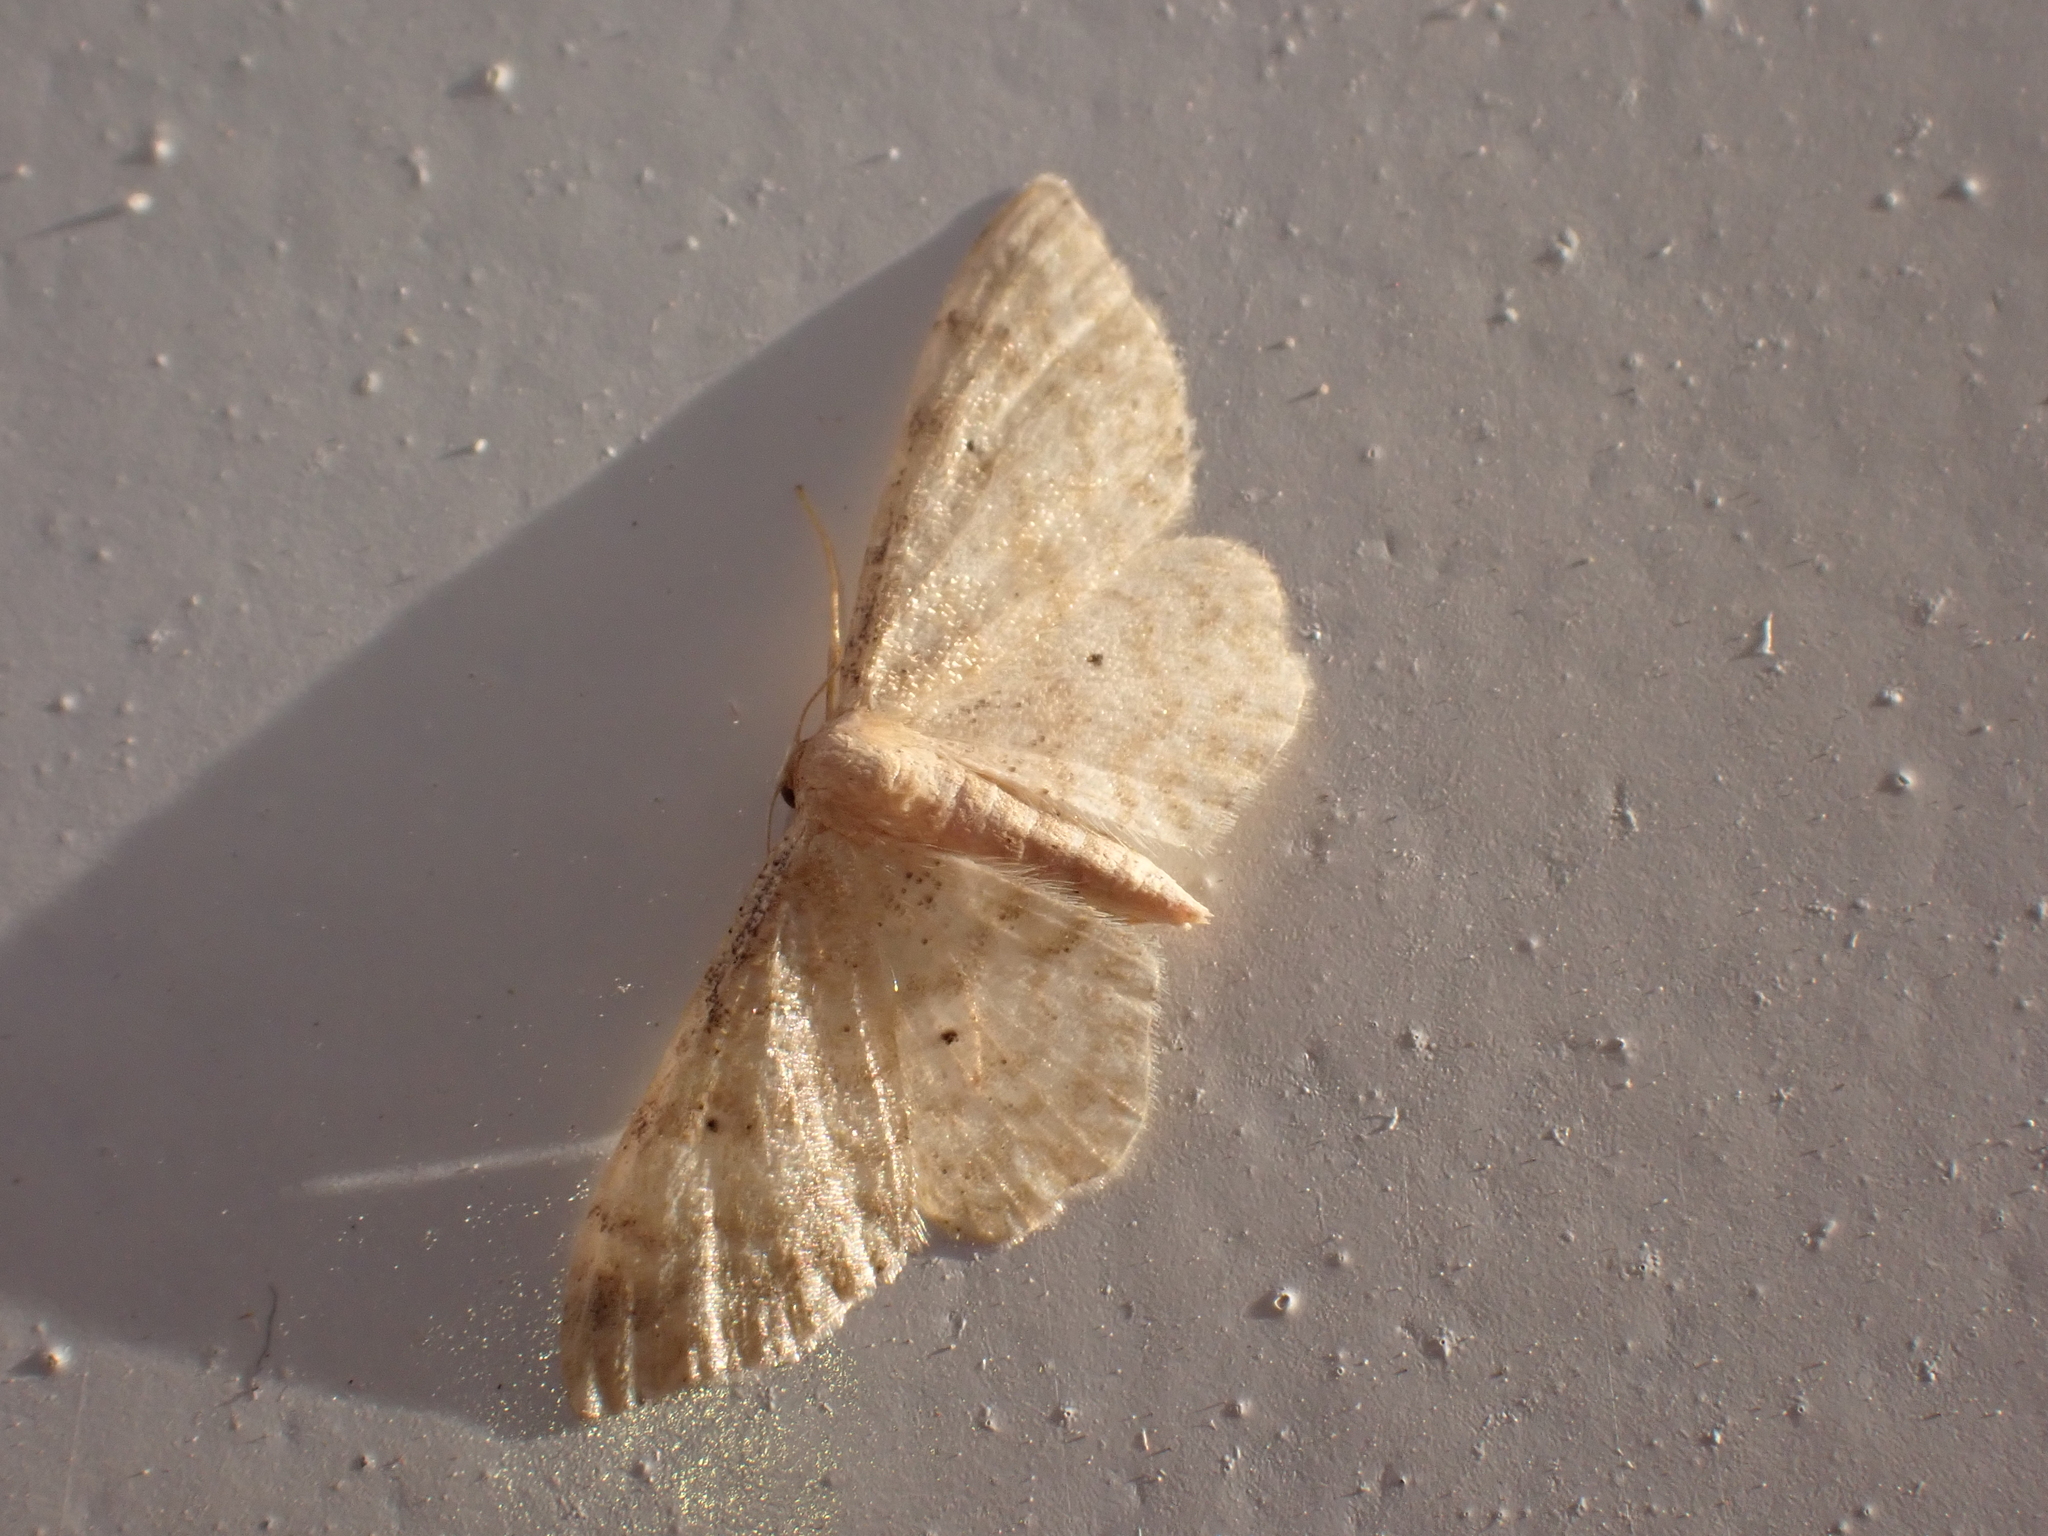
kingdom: Animalia
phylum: Arthropoda
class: Insecta
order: Lepidoptera
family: Geometridae
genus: Idaea
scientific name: Idaea fuscovenosa
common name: Dwarf cream wave
